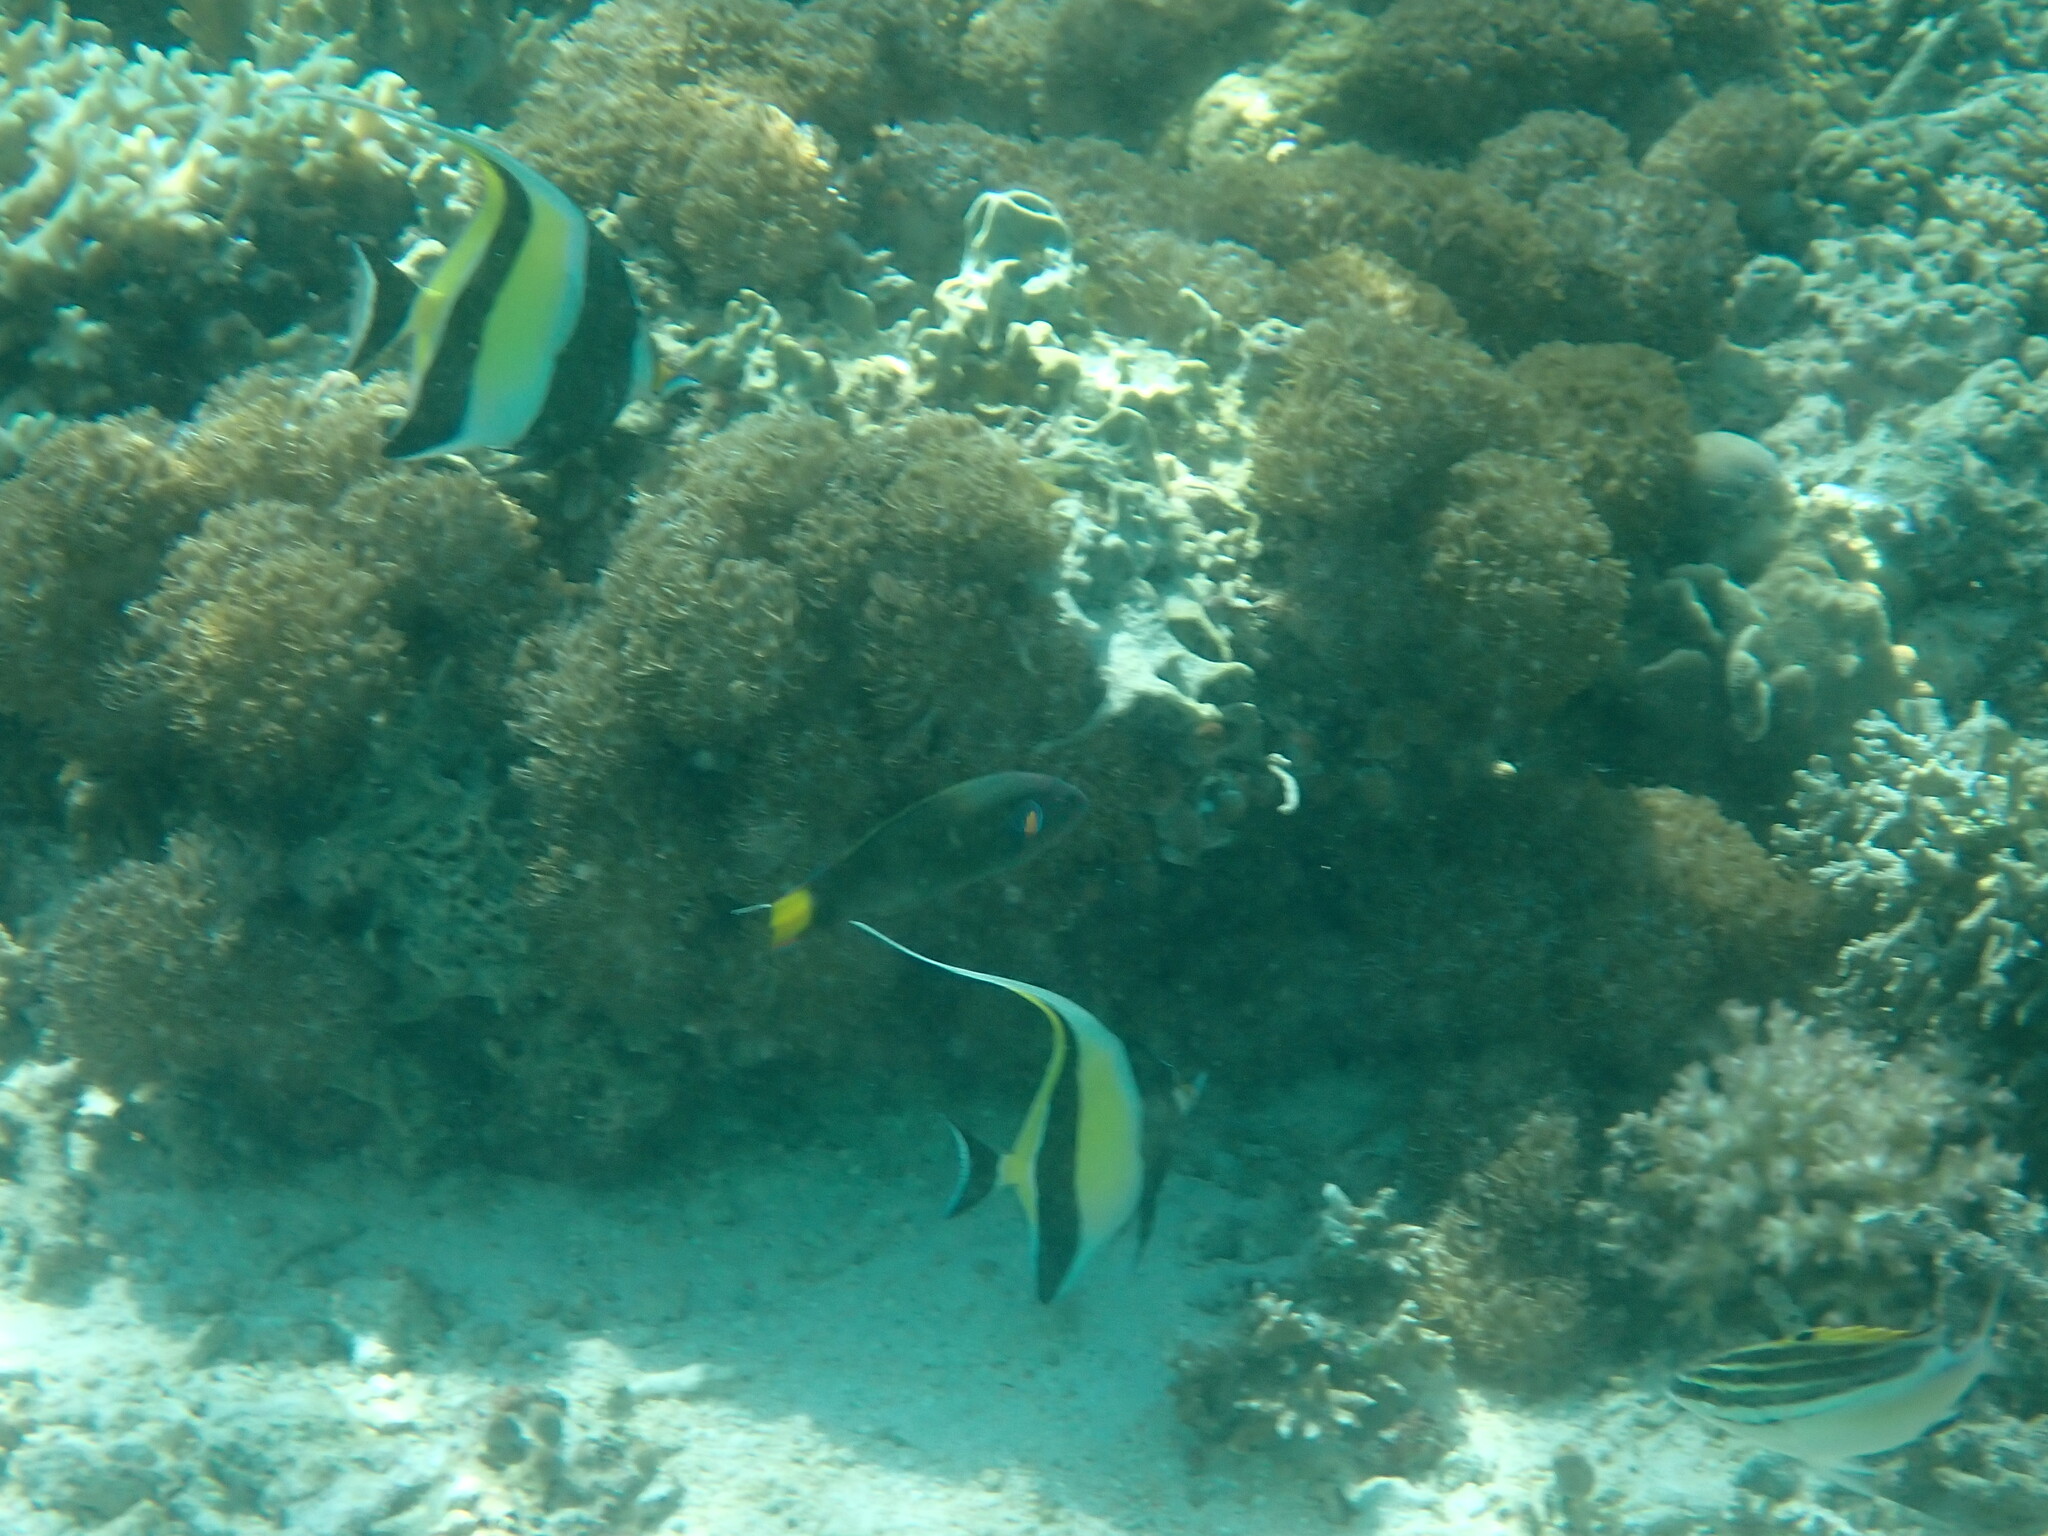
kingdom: Animalia
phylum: Chordata
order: Perciformes
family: Zanclidae
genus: Zanclus
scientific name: Zanclus cornutus
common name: Moorish idol
